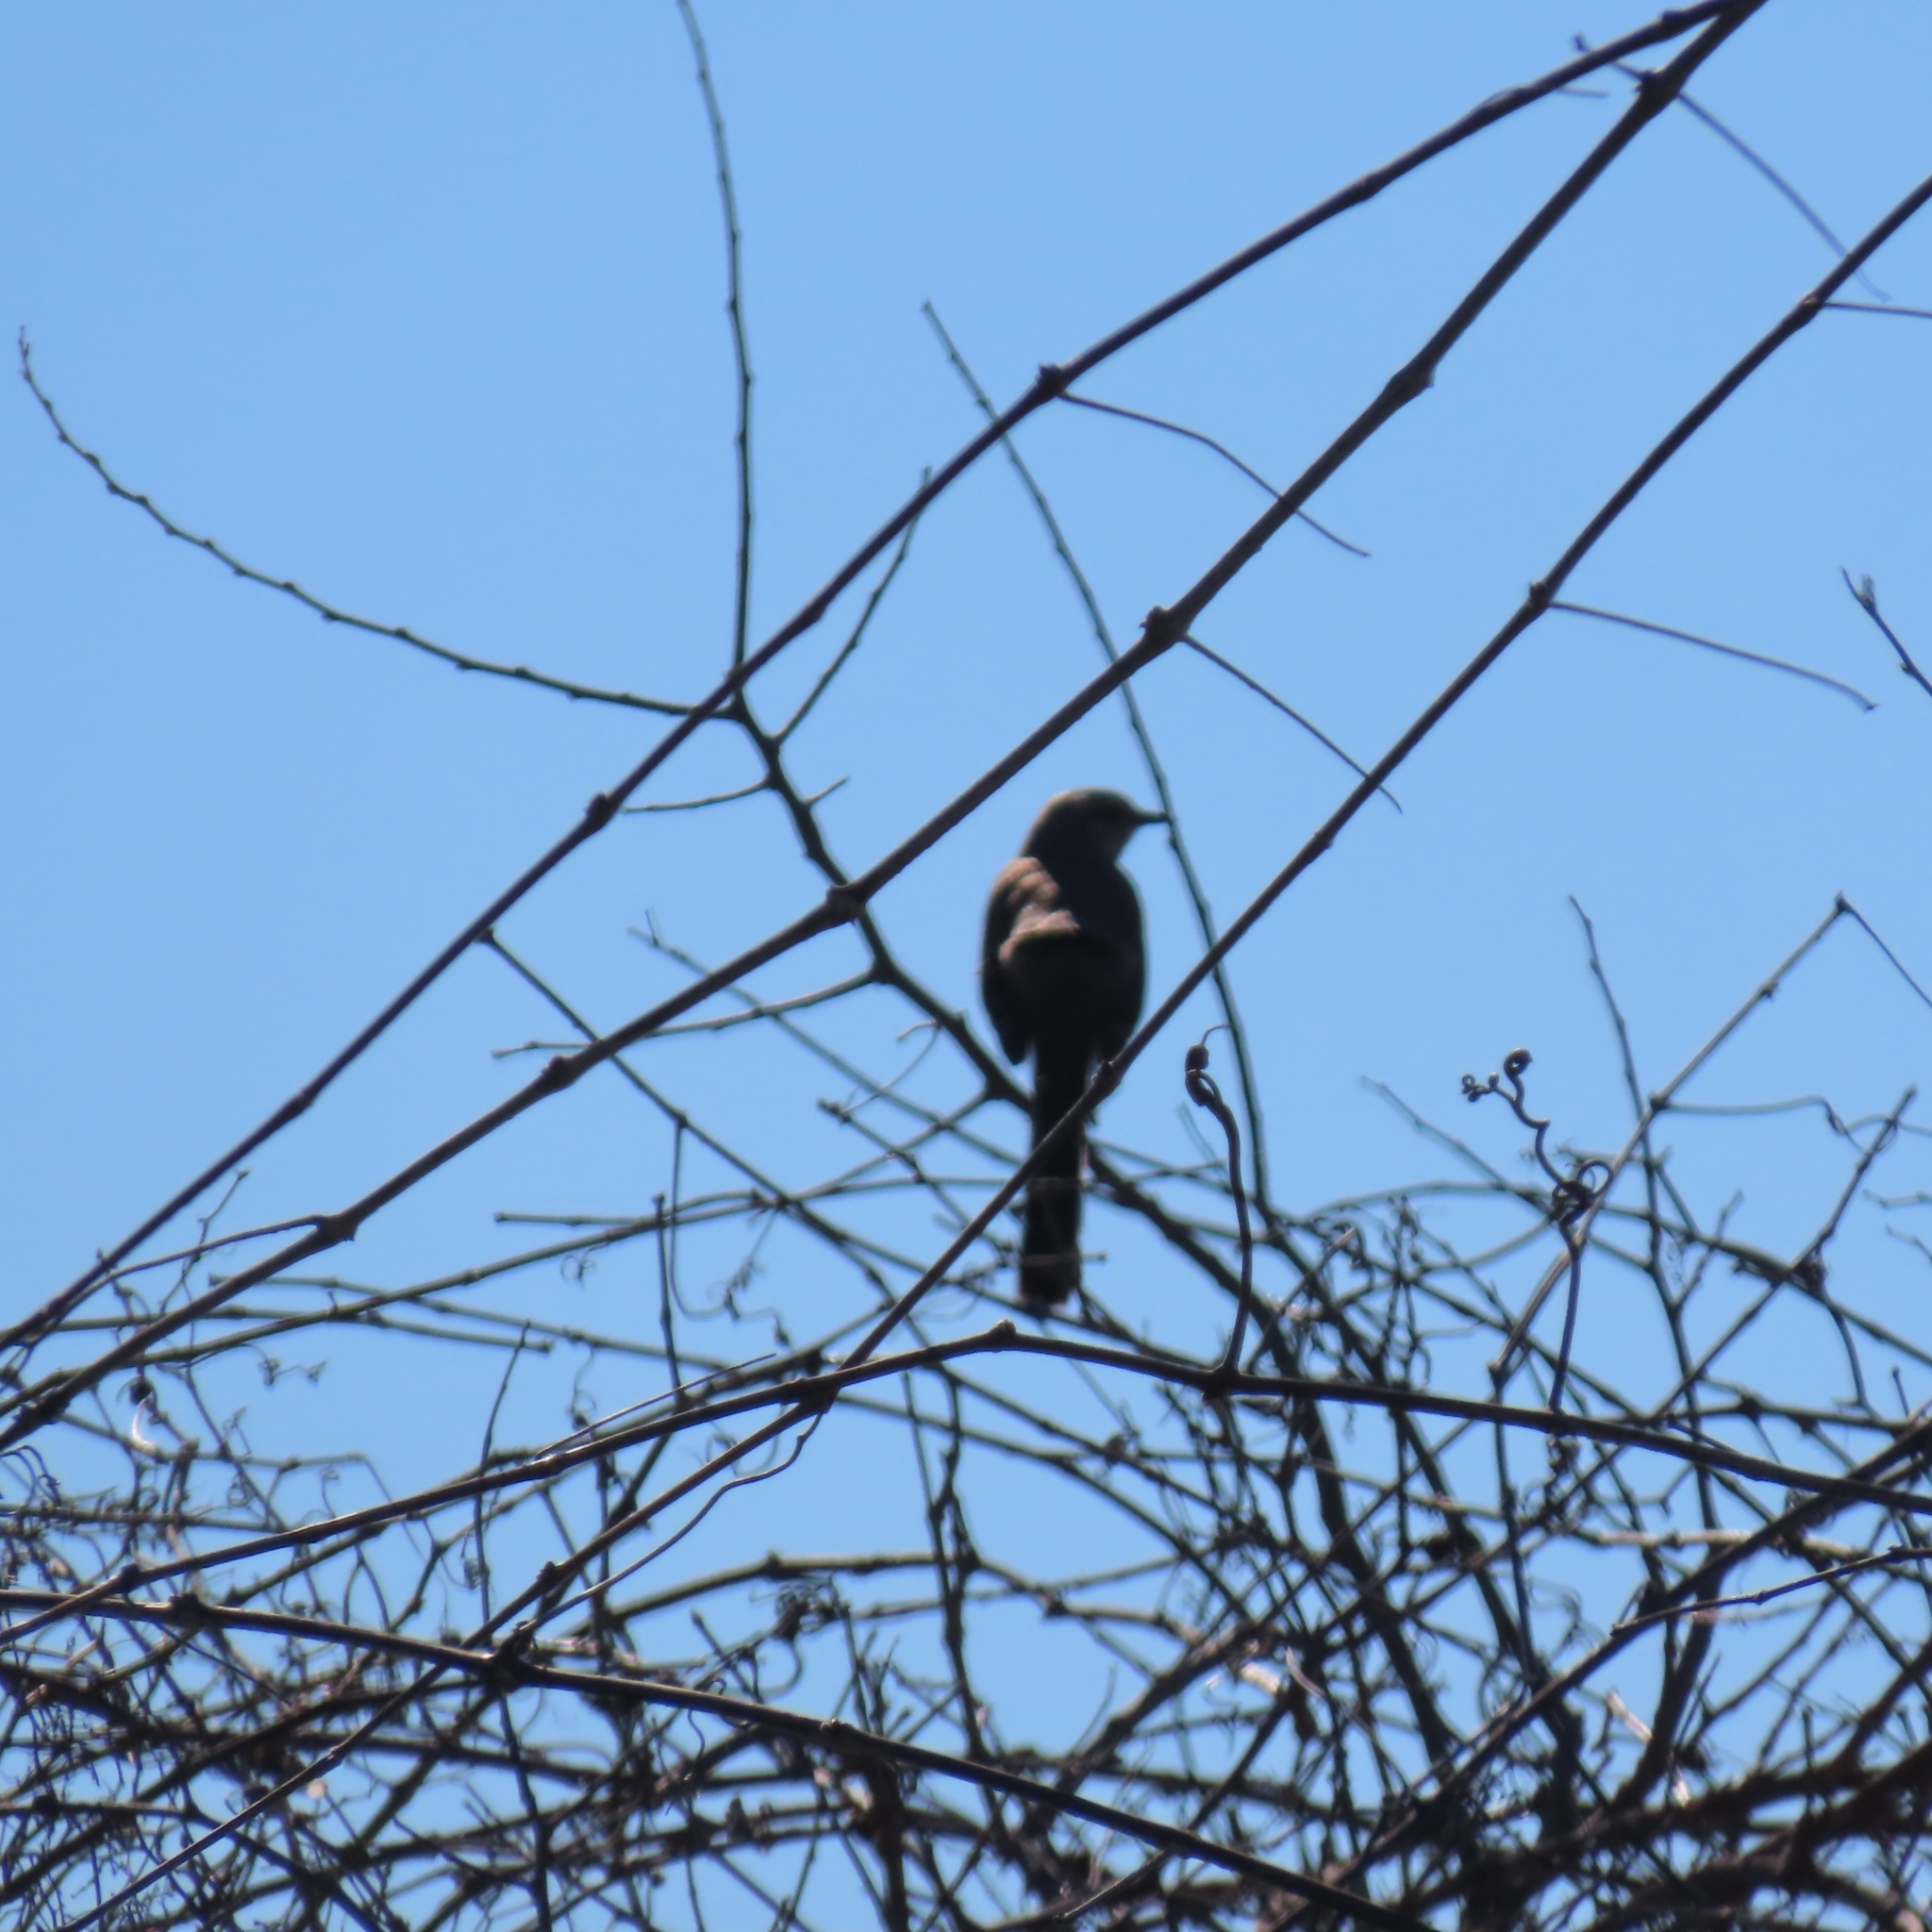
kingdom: Animalia
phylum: Chordata
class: Aves
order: Passeriformes
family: Mimidae
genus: Mimus
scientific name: Mimus polyglottos
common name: Northern mockingbird
